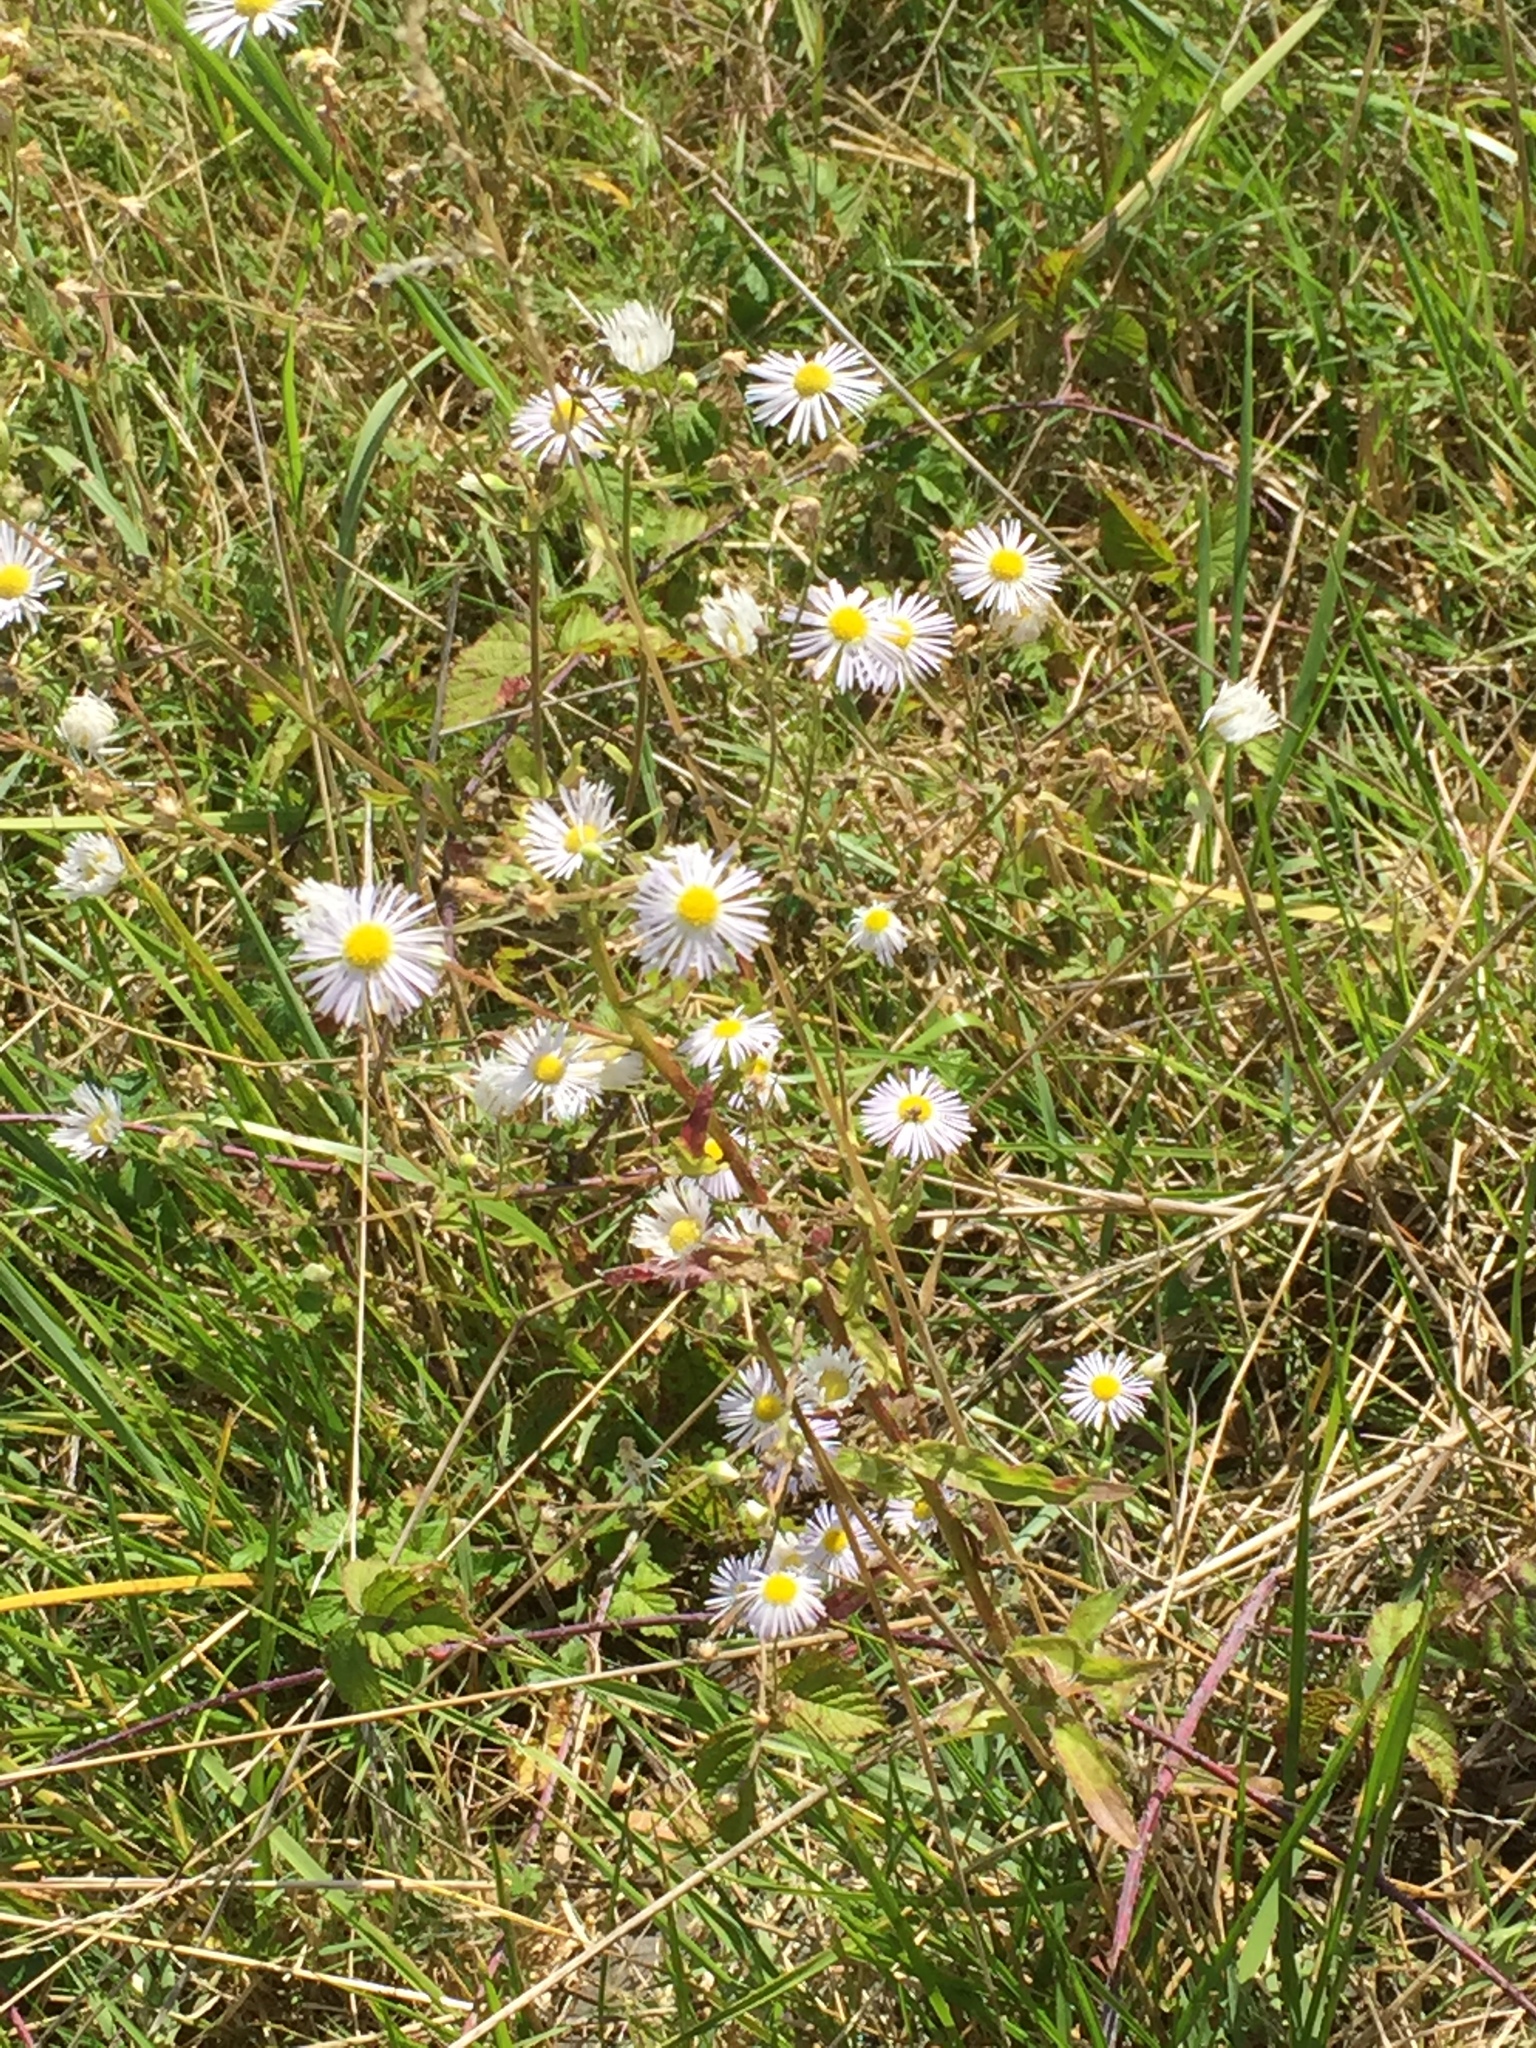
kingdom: Plantae
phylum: Tracheophyta
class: Magnoliopsida
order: Asterales
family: Asteraceae
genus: Erigeron
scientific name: Erigeron annuus
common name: Tall fleabane
